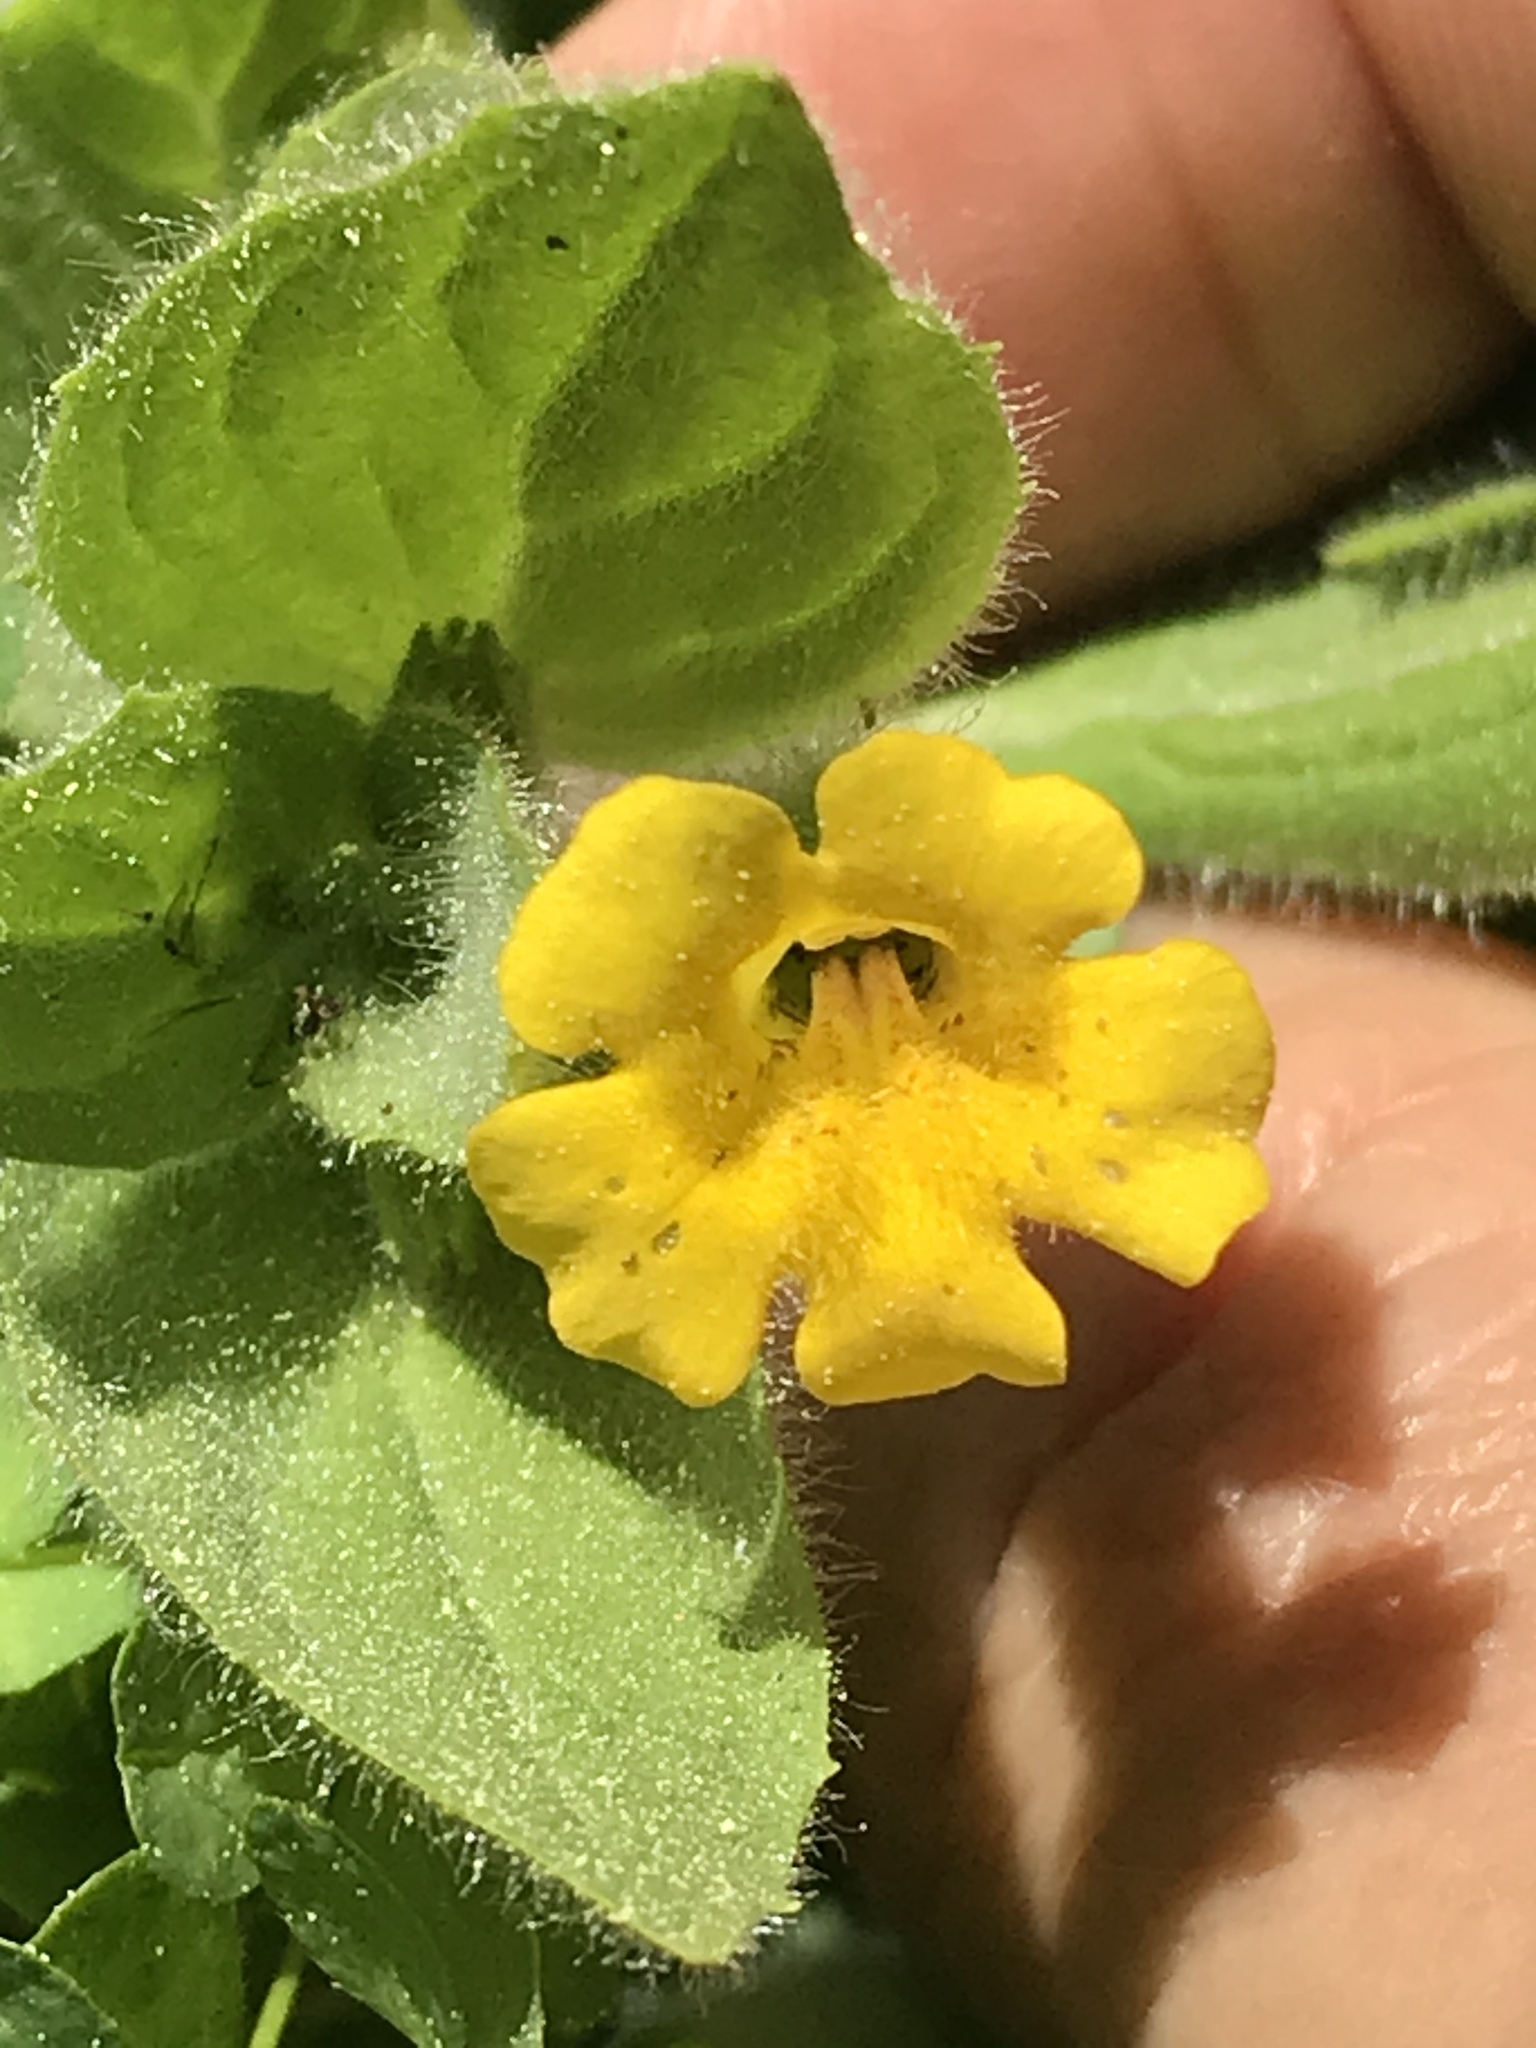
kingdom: Plantae
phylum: Tracheophyta
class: Magnoliopsida
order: Lamiales
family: Phrymaceae
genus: Erythranthe
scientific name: Erythranthe moschata
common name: Muskflower
